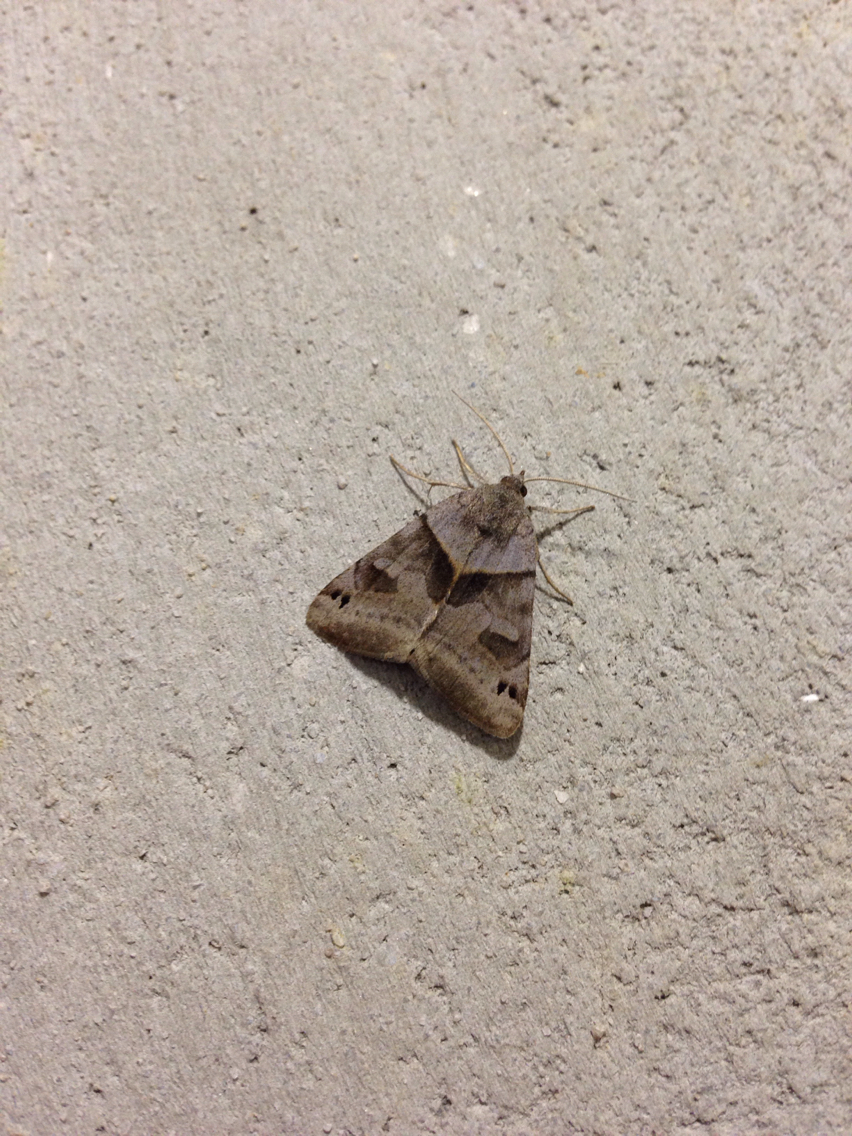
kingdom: Animalia
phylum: Arthropoda
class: Insecta
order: Lepidoptera
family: Erebidae
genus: Caenurgina
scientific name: Caenurgina erechtea
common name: Forage looper moth
